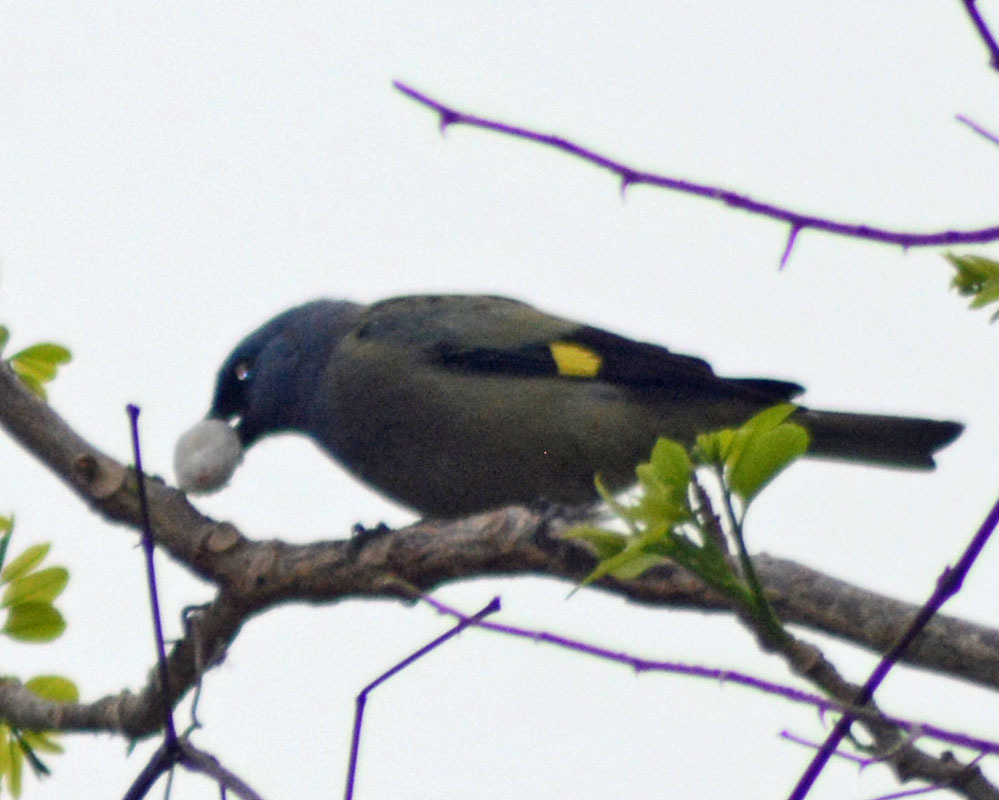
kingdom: Animalia
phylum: Chordata
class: Aves
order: Passeriformes
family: Thraupidae
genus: Thraupis
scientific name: Thraupis abbas
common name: Yellow-winged tanager
